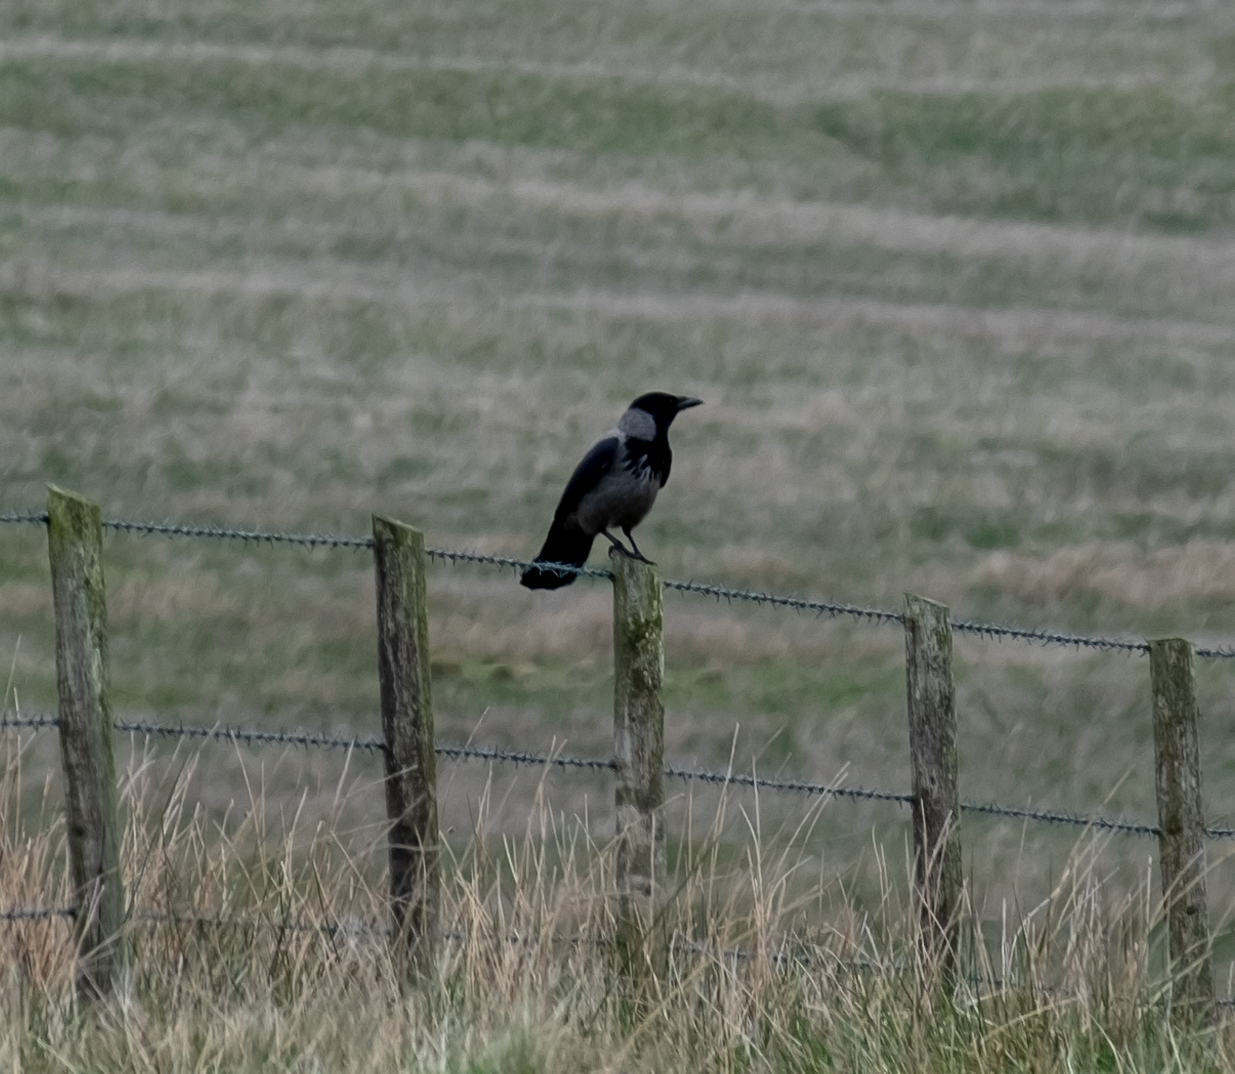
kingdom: Animalia
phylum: Chordata
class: Aves
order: Passeriformes
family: Corvidae
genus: Corvus
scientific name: Corvus cornix
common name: Hooded crow
